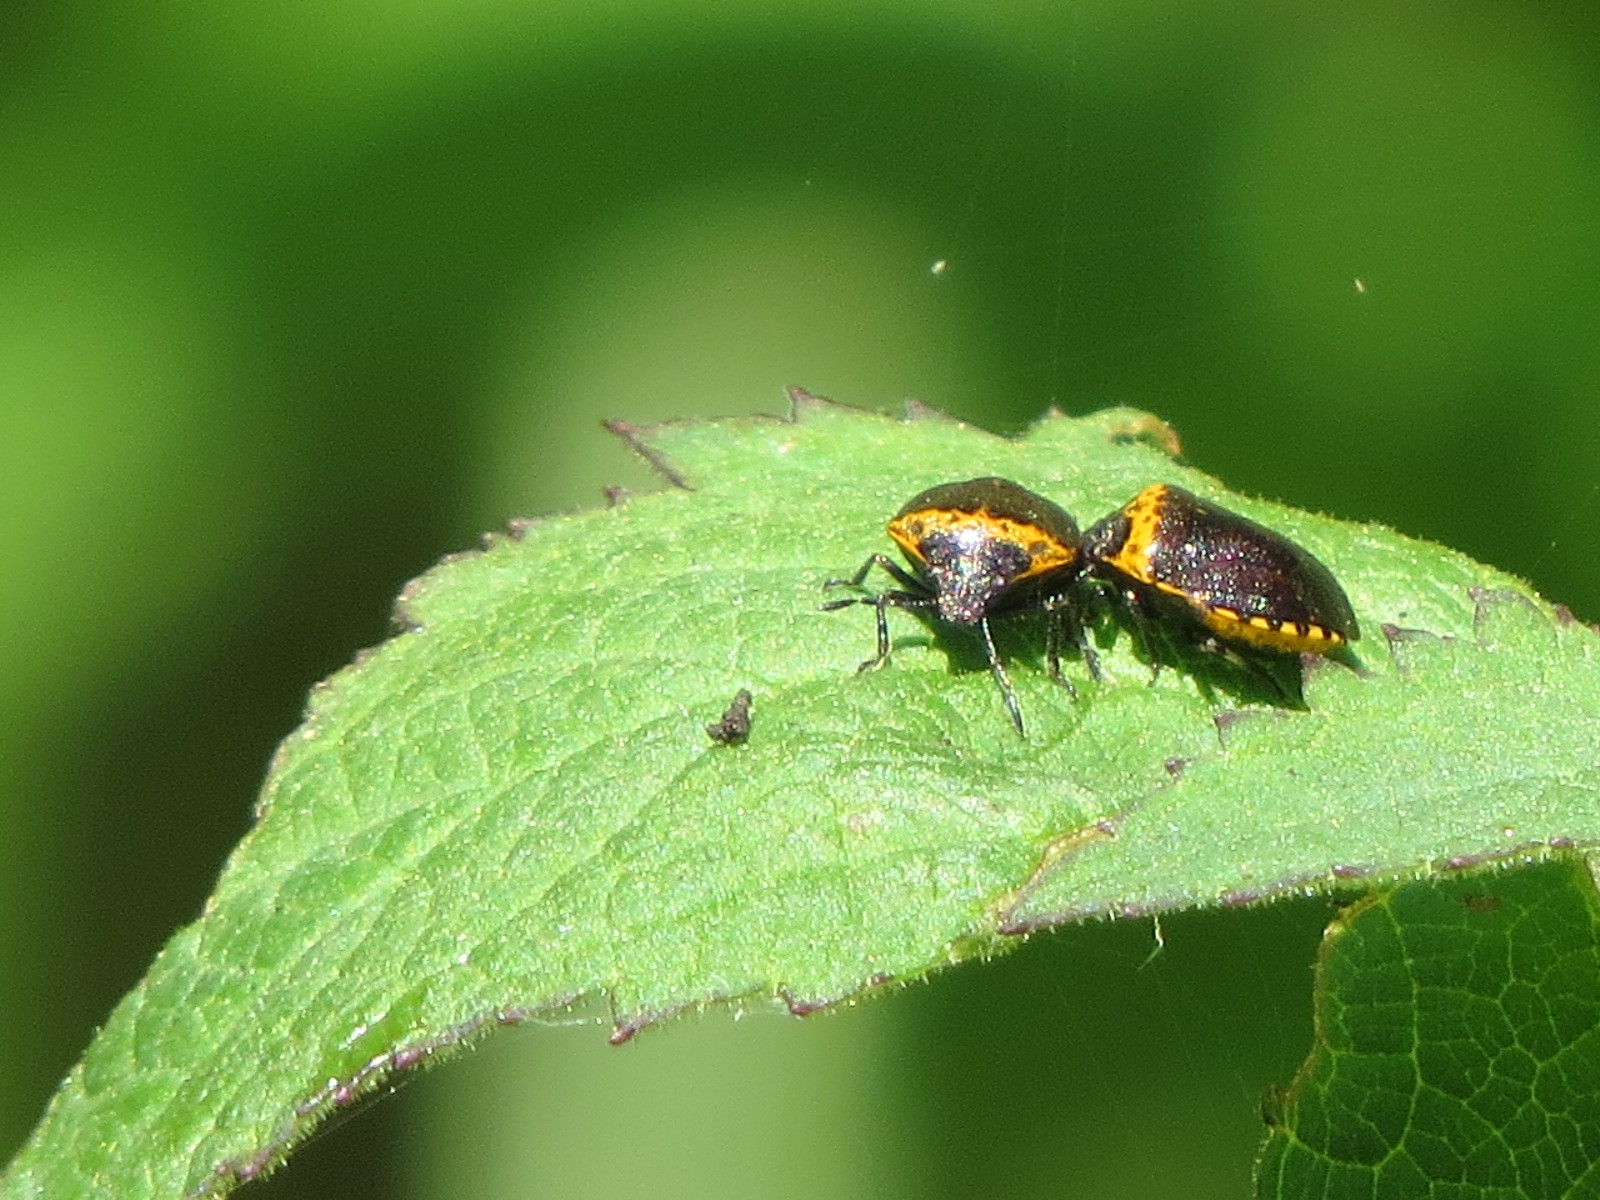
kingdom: Animalia
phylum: Arthropoda
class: Insecta
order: Hemiptera
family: Pentatomidae
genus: Cosmopepla
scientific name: Cosmopepla uhleri
